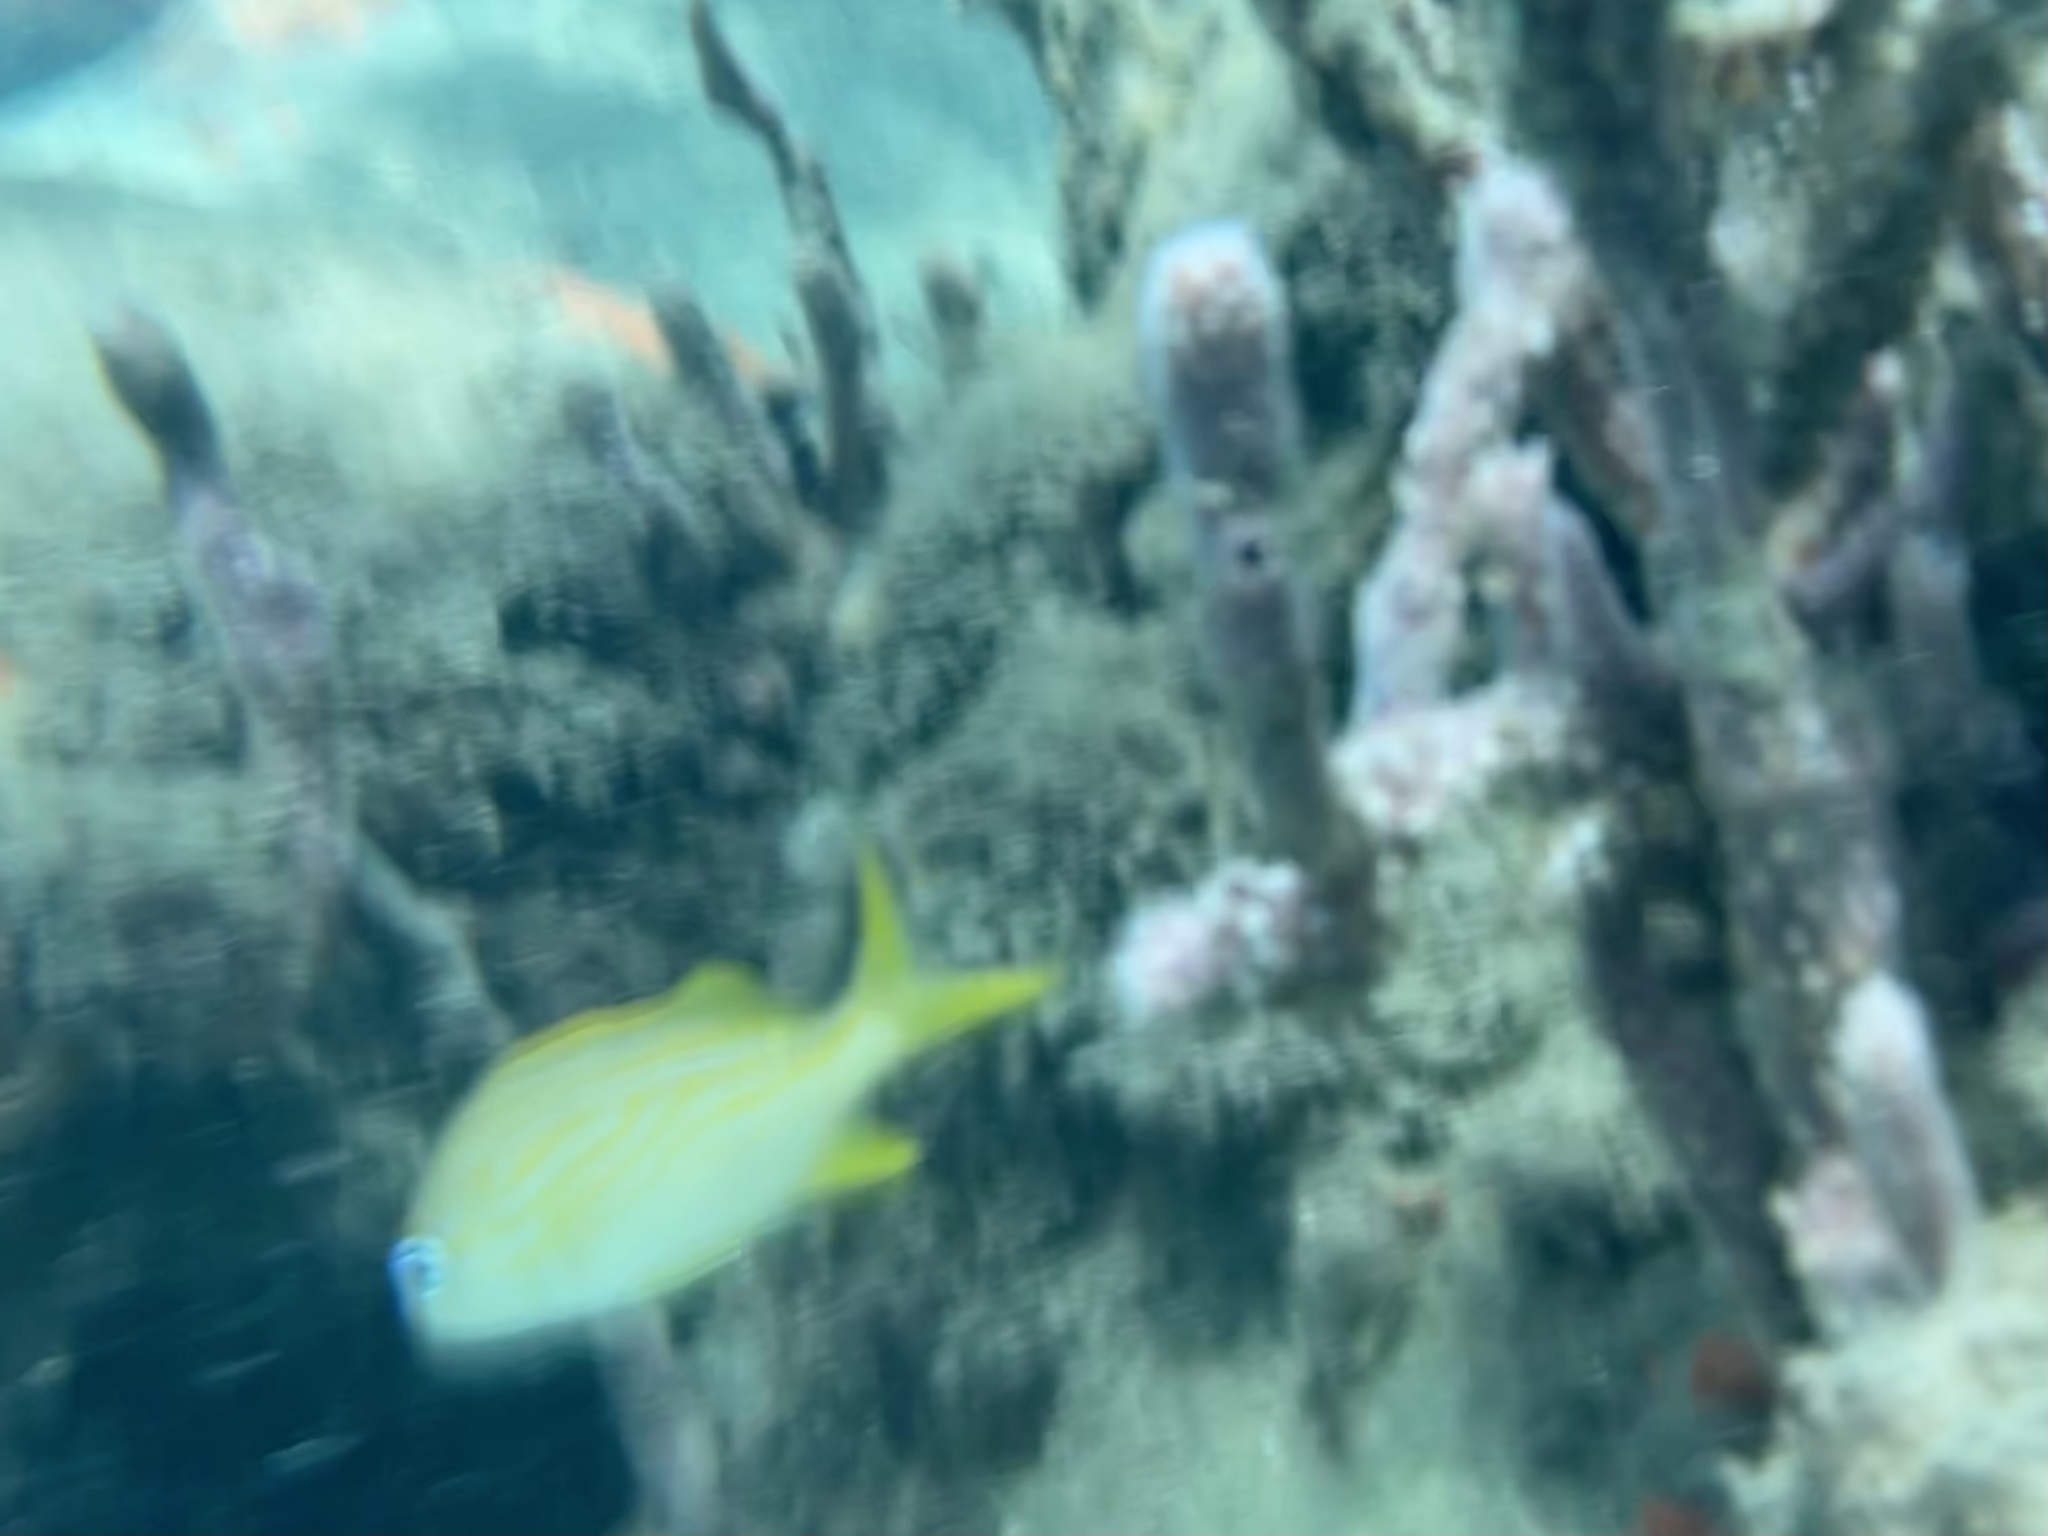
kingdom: Animalia
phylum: Chordata
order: Perciformes
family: Haemulidae
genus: Haemulon
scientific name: Haemulon flavolineatum
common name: French grunt
